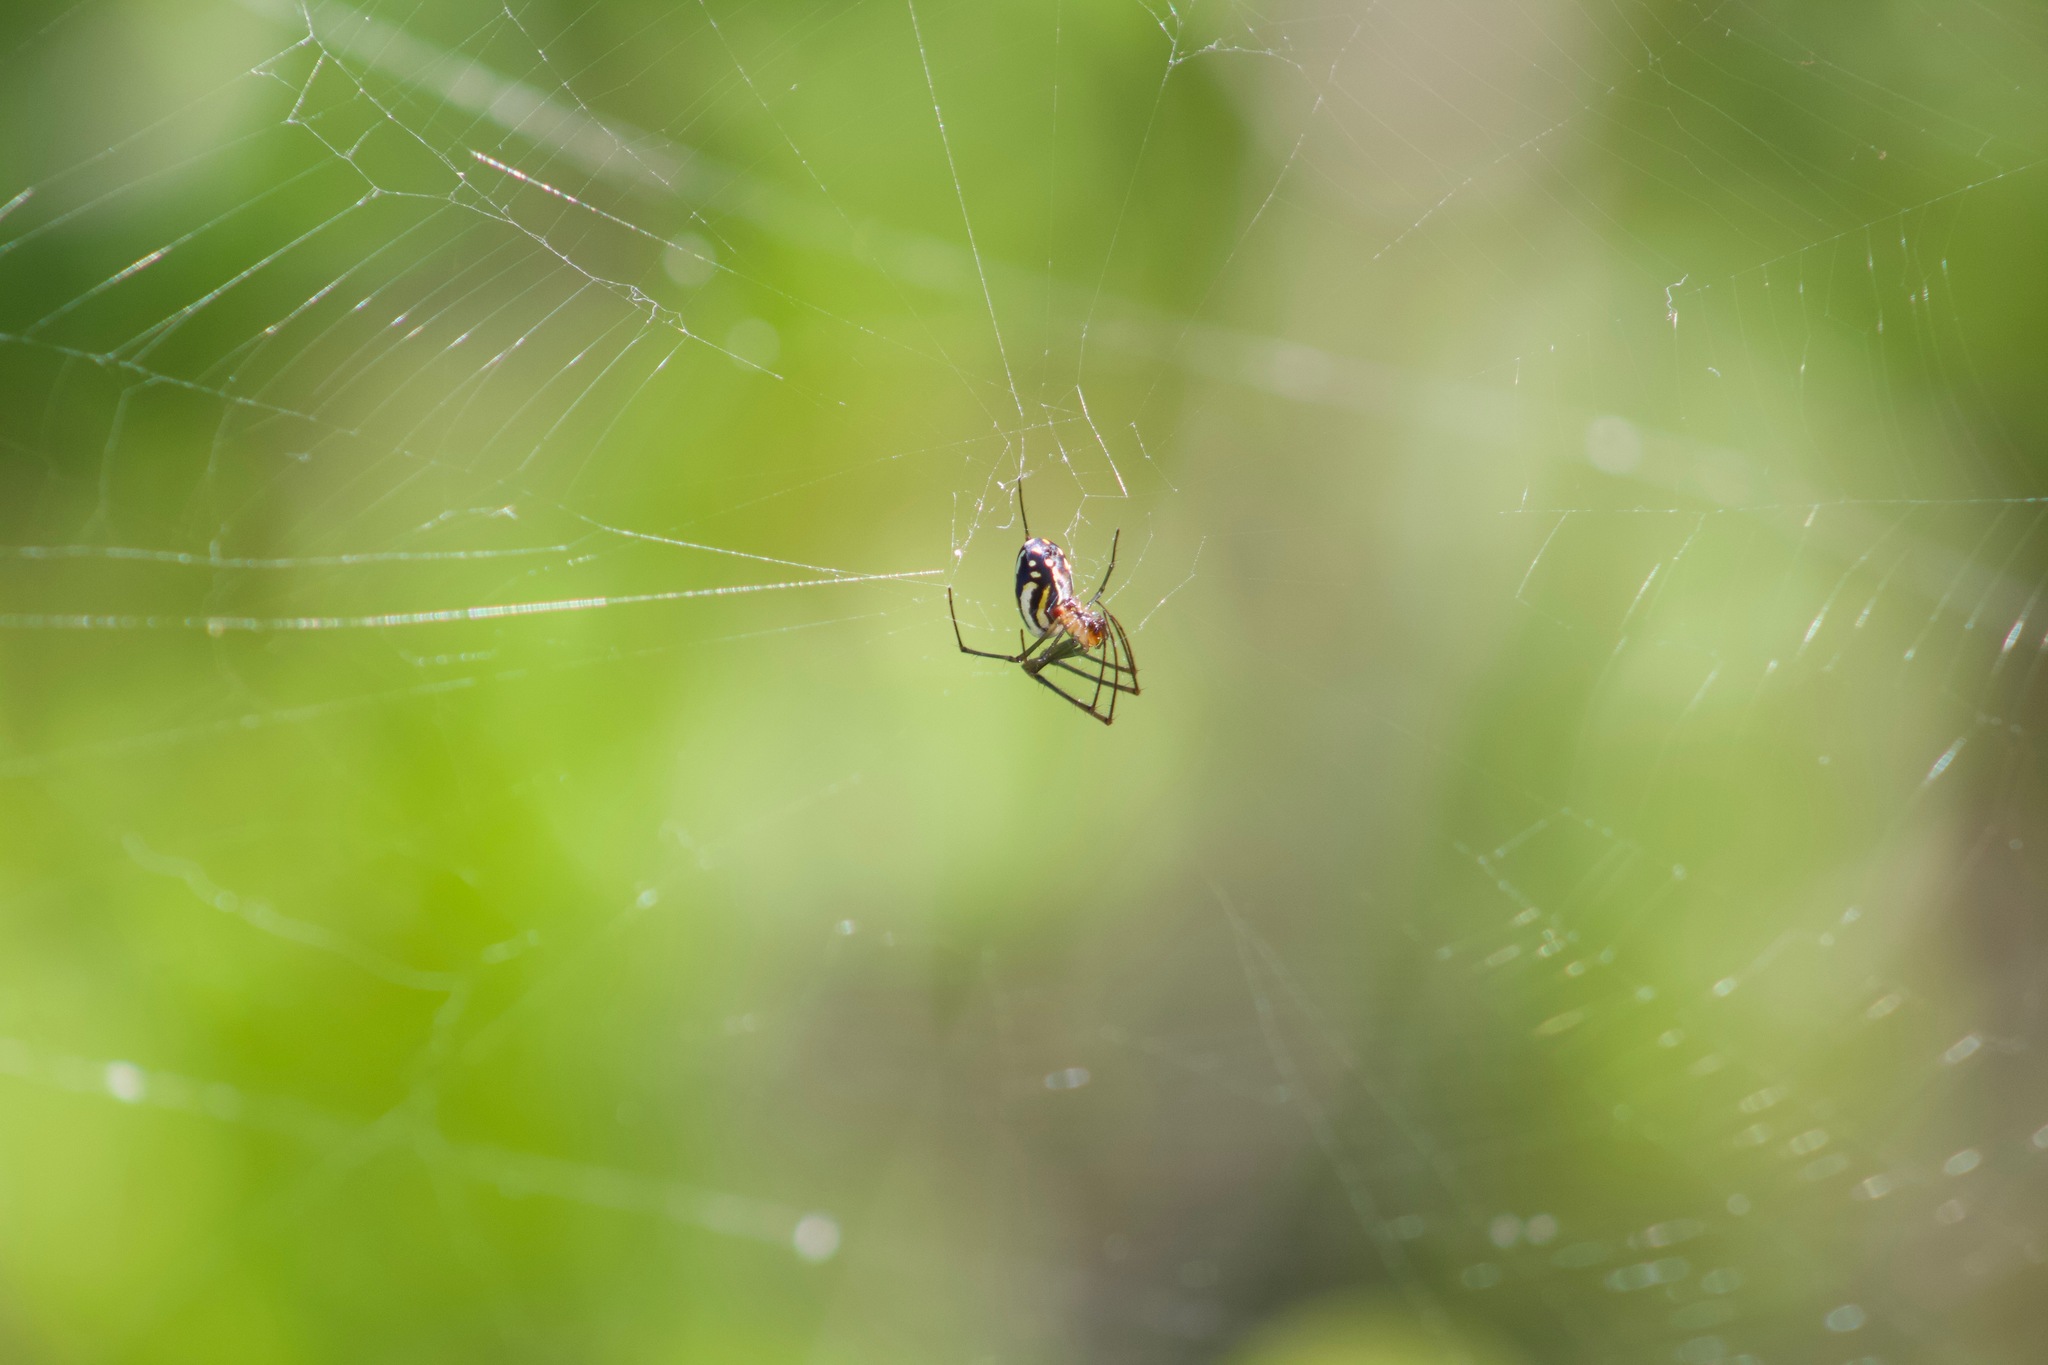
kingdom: Animalia
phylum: Arthropoda
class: Arachnida
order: Araneae
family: Tetragnathidae
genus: Leucauge
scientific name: Leucauge argyra
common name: Longjawed orb weavers
